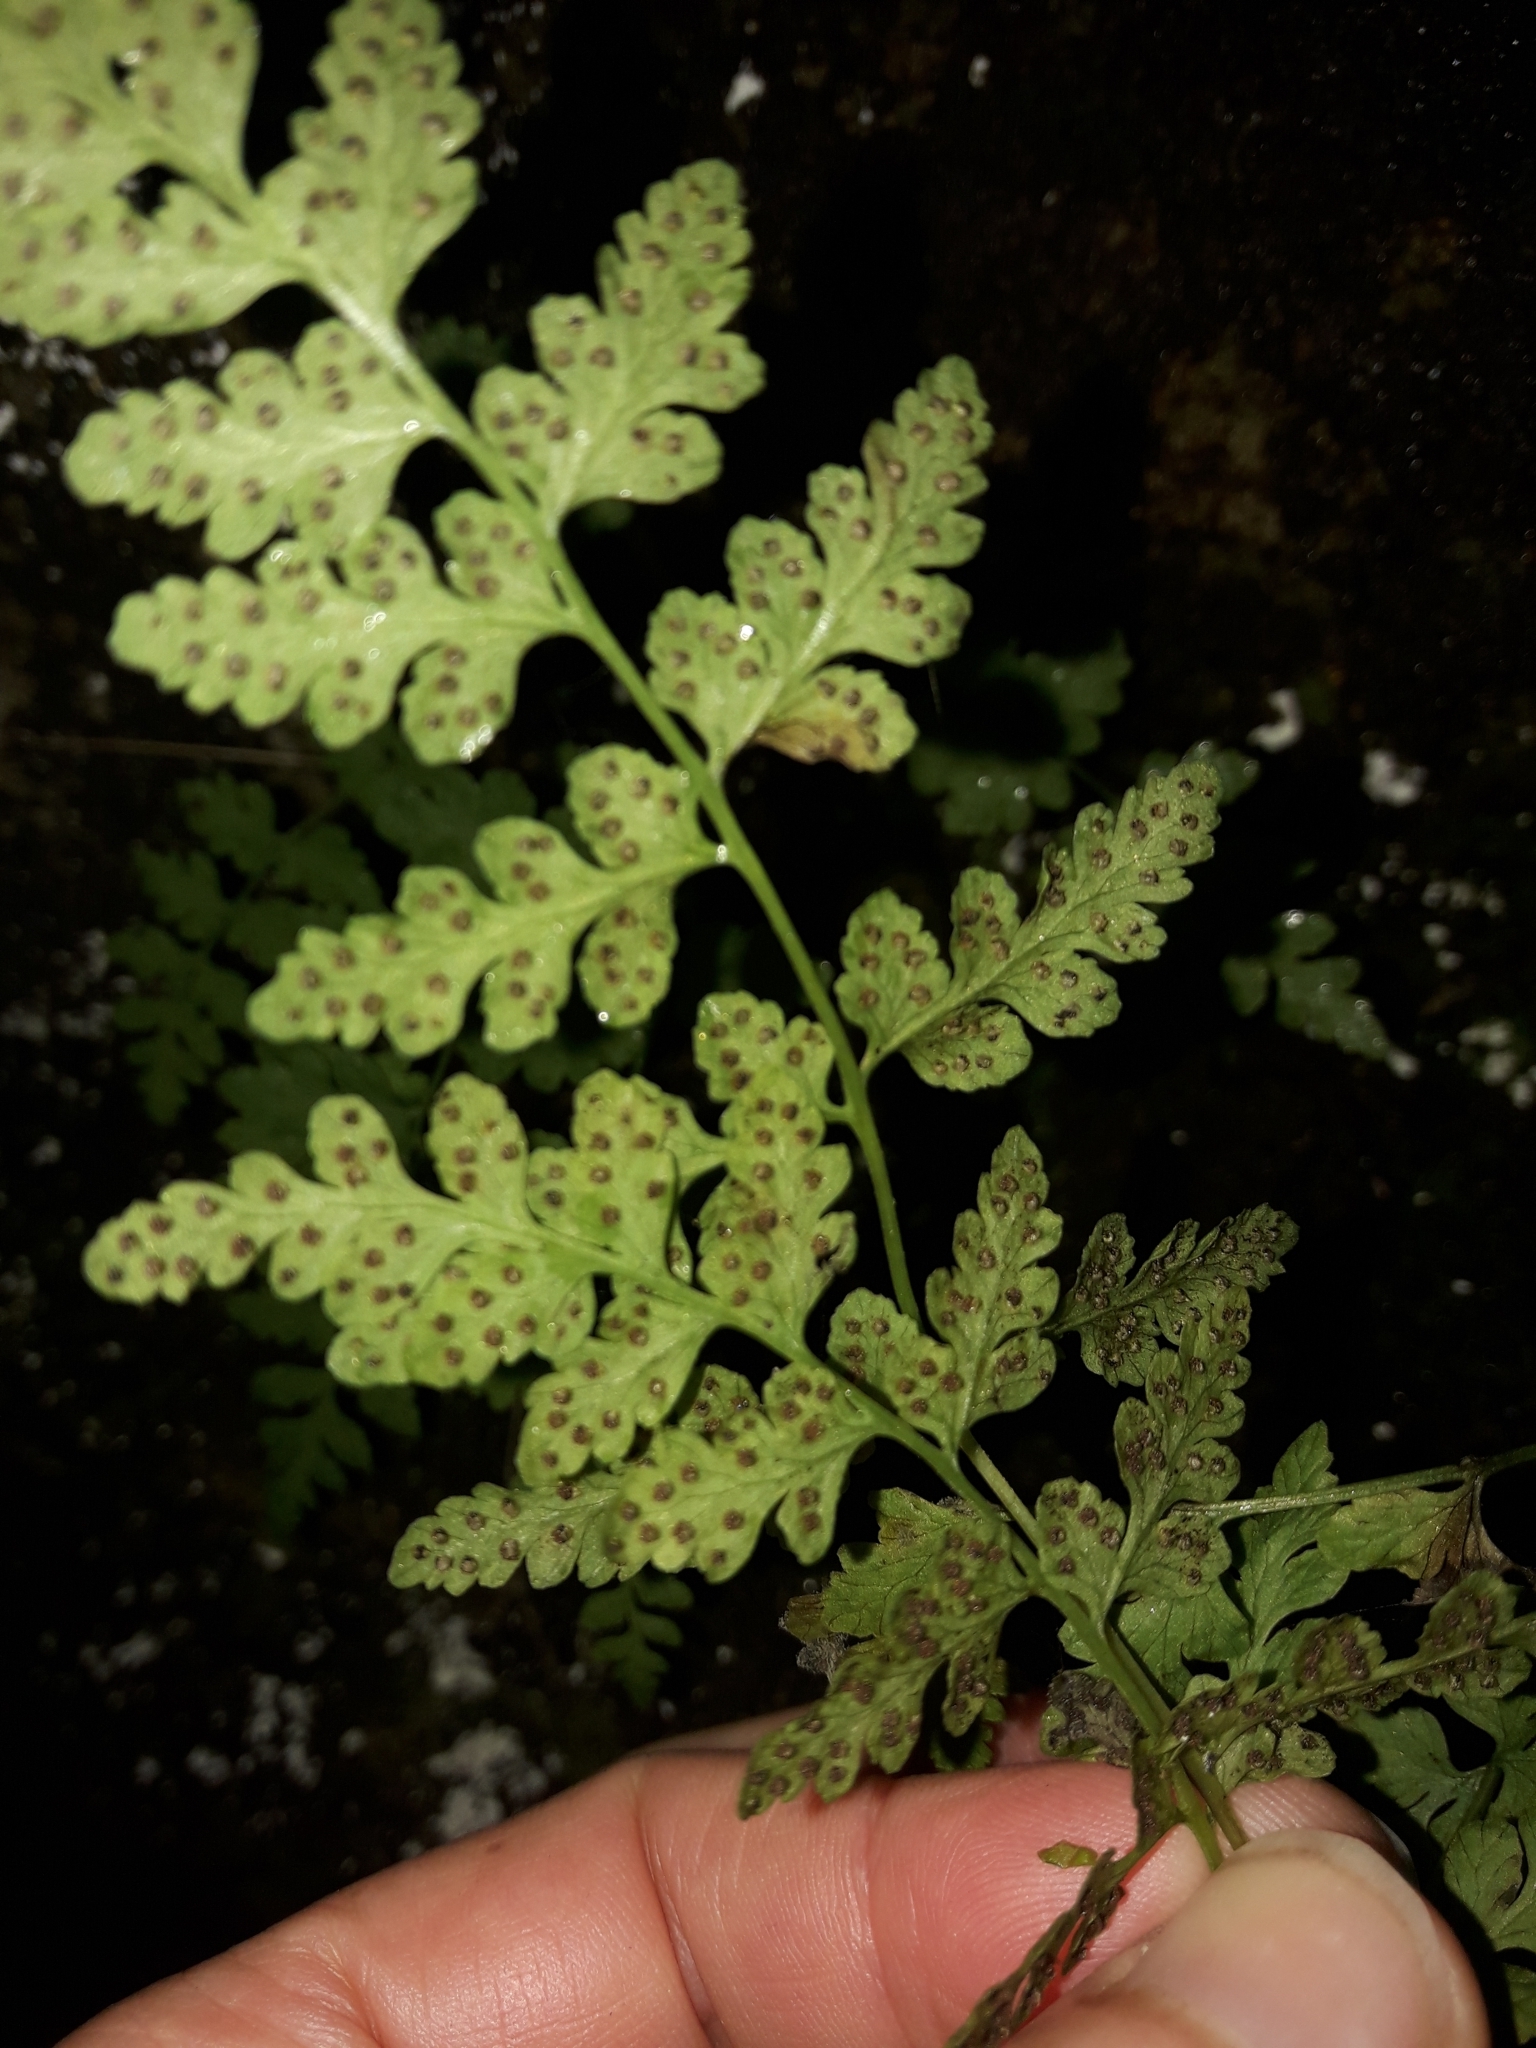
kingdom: Plantae
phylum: Tracheophyta
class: Polypodiopsida
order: Polypodiales
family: Cystopteridaceae
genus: Cystopteris
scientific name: Cystopteris tasmanica
